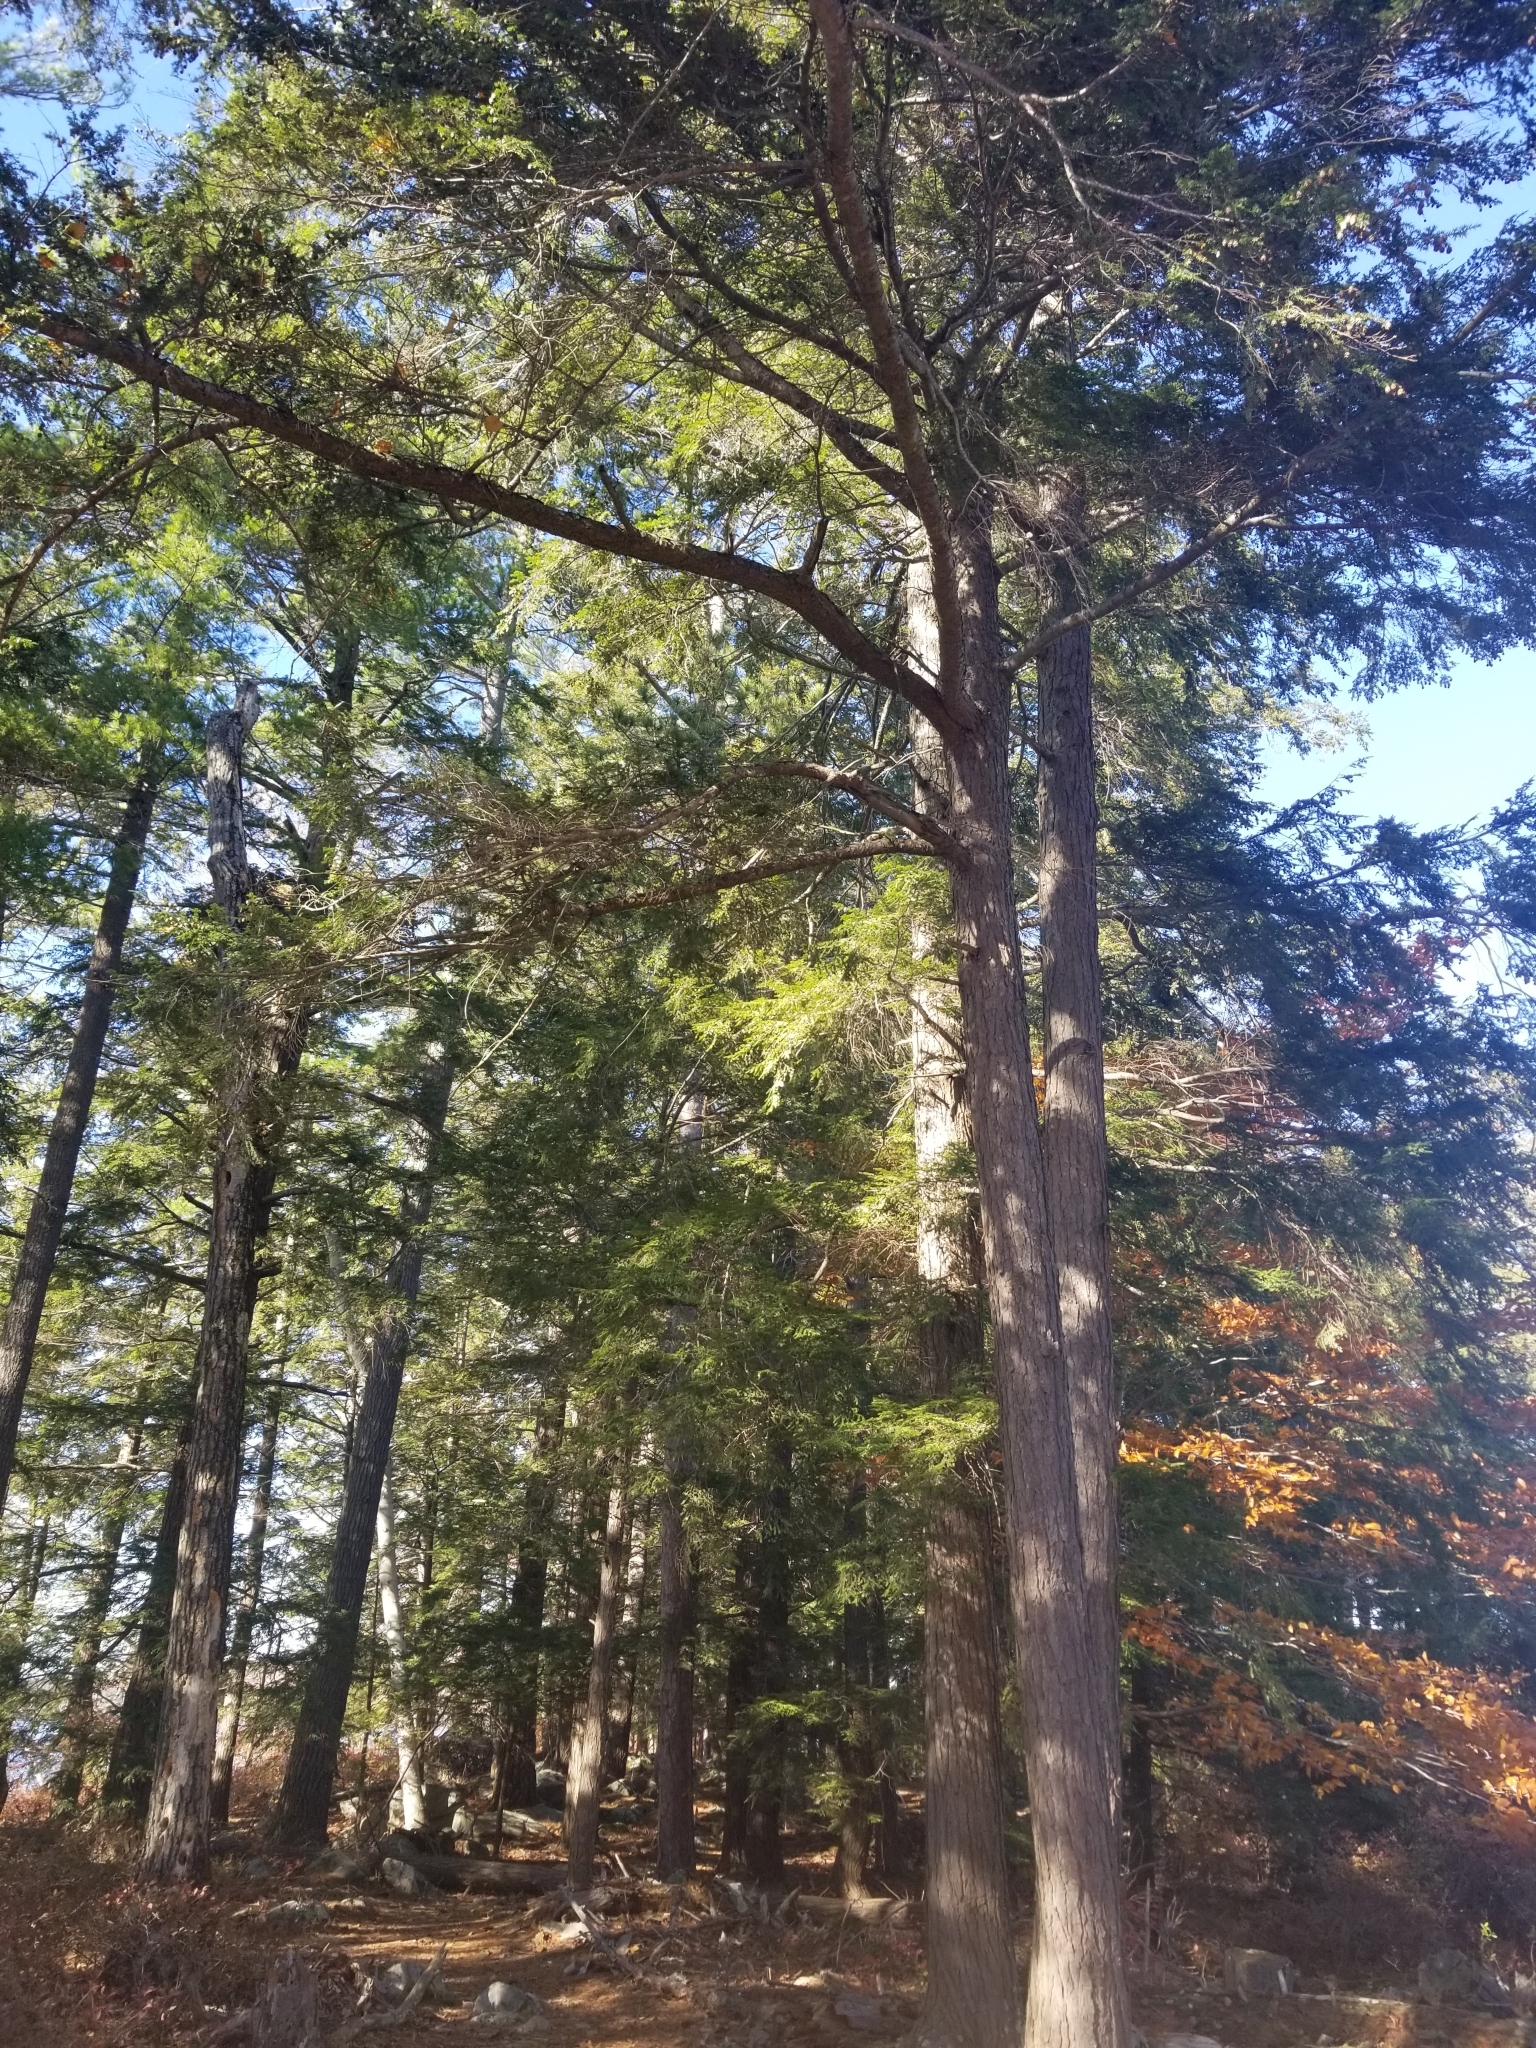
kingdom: Plantae
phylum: Tracheophyta
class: Pinopsida
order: Pinales
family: Pinaceae
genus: Tsuga
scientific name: Tsuga canadensis
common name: Eastern hemlock
